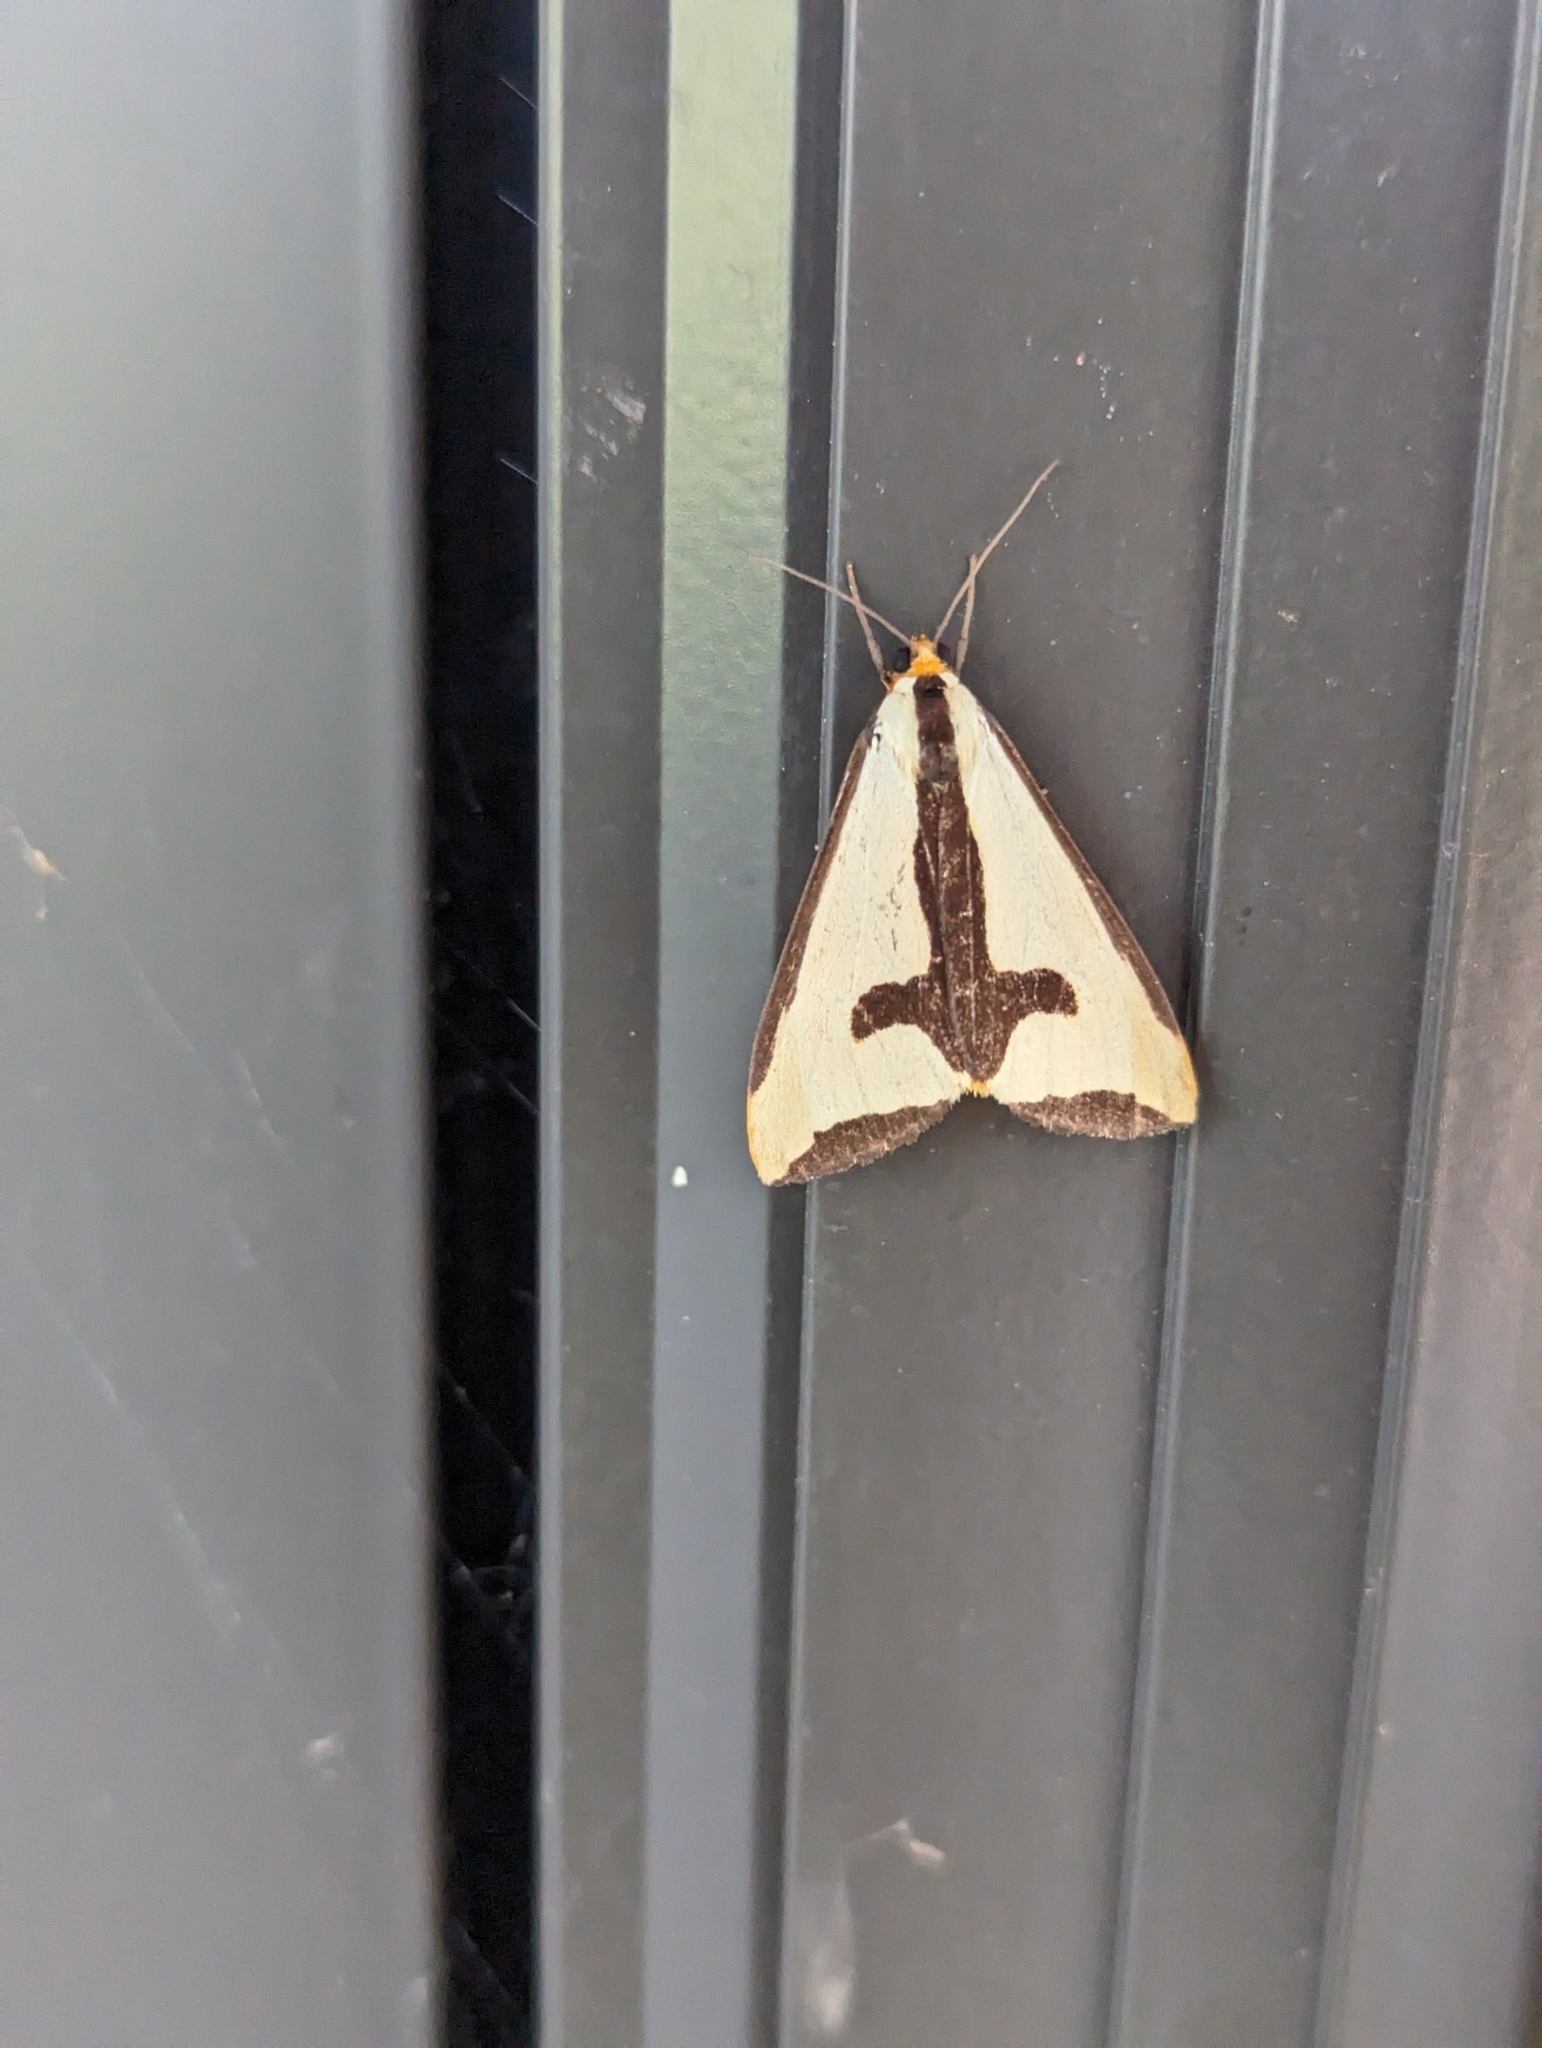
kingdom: Animalia
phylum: Arthropoda
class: Insecta
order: Lepidoptera
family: Erebidae
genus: Haploa
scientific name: Haploa clymene
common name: Clymene moth
